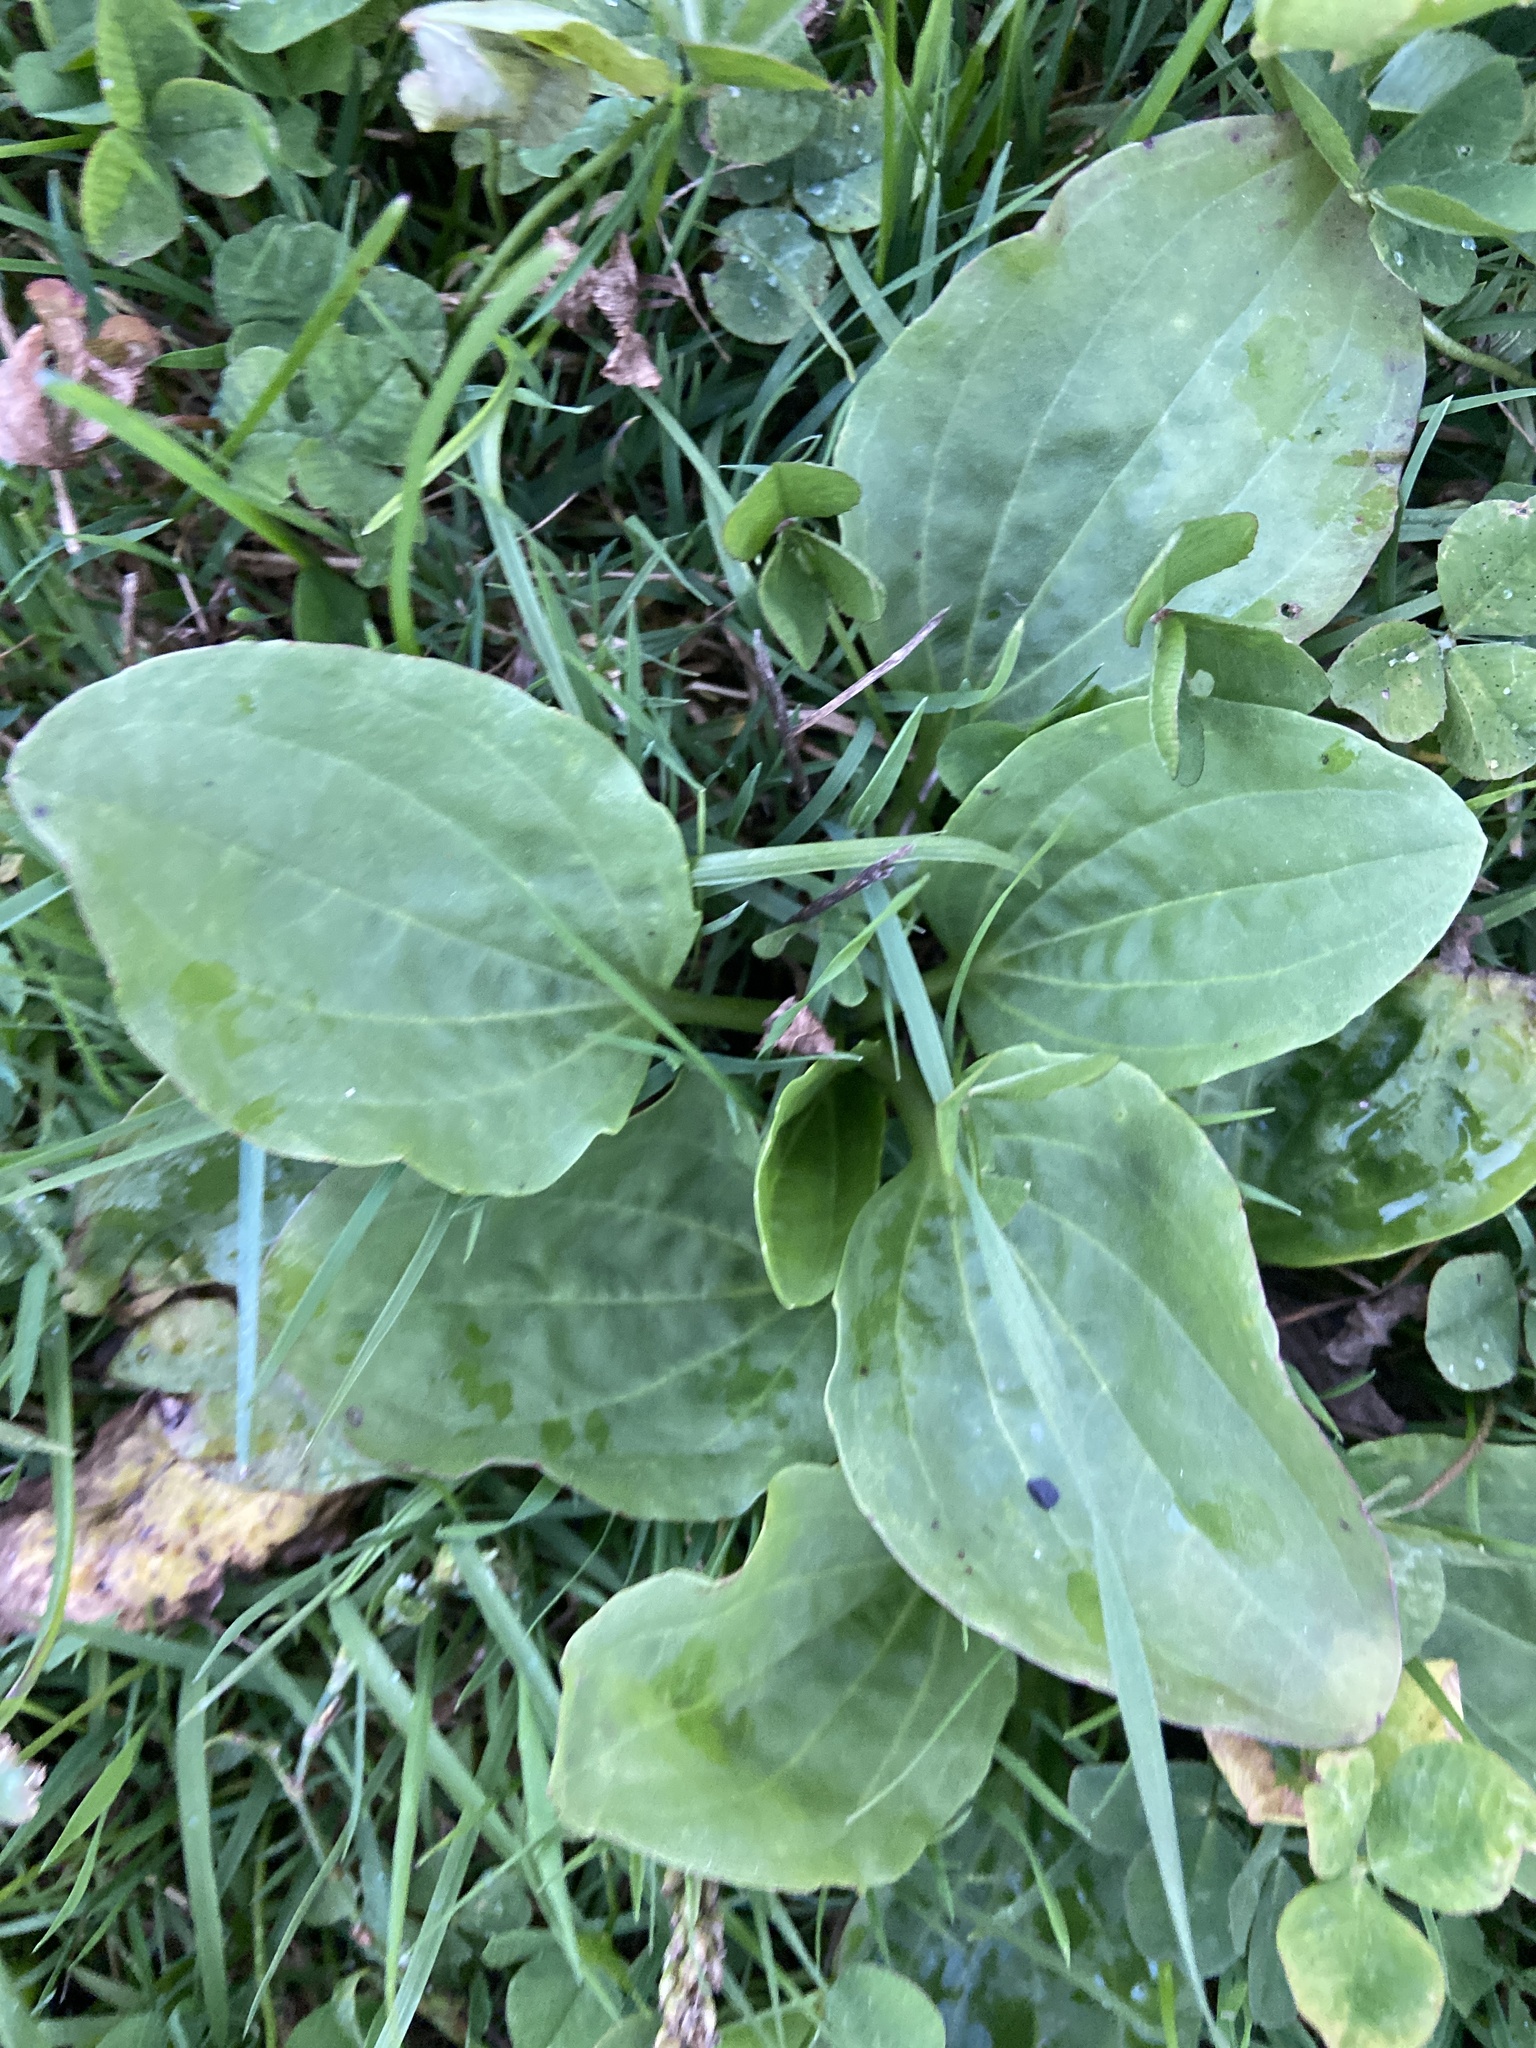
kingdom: Plantae
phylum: Tracheophyta
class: Magnoliopsida
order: Lamiales
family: Plantaginaceae
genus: Plantago
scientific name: Plantago major
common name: Common plantain
